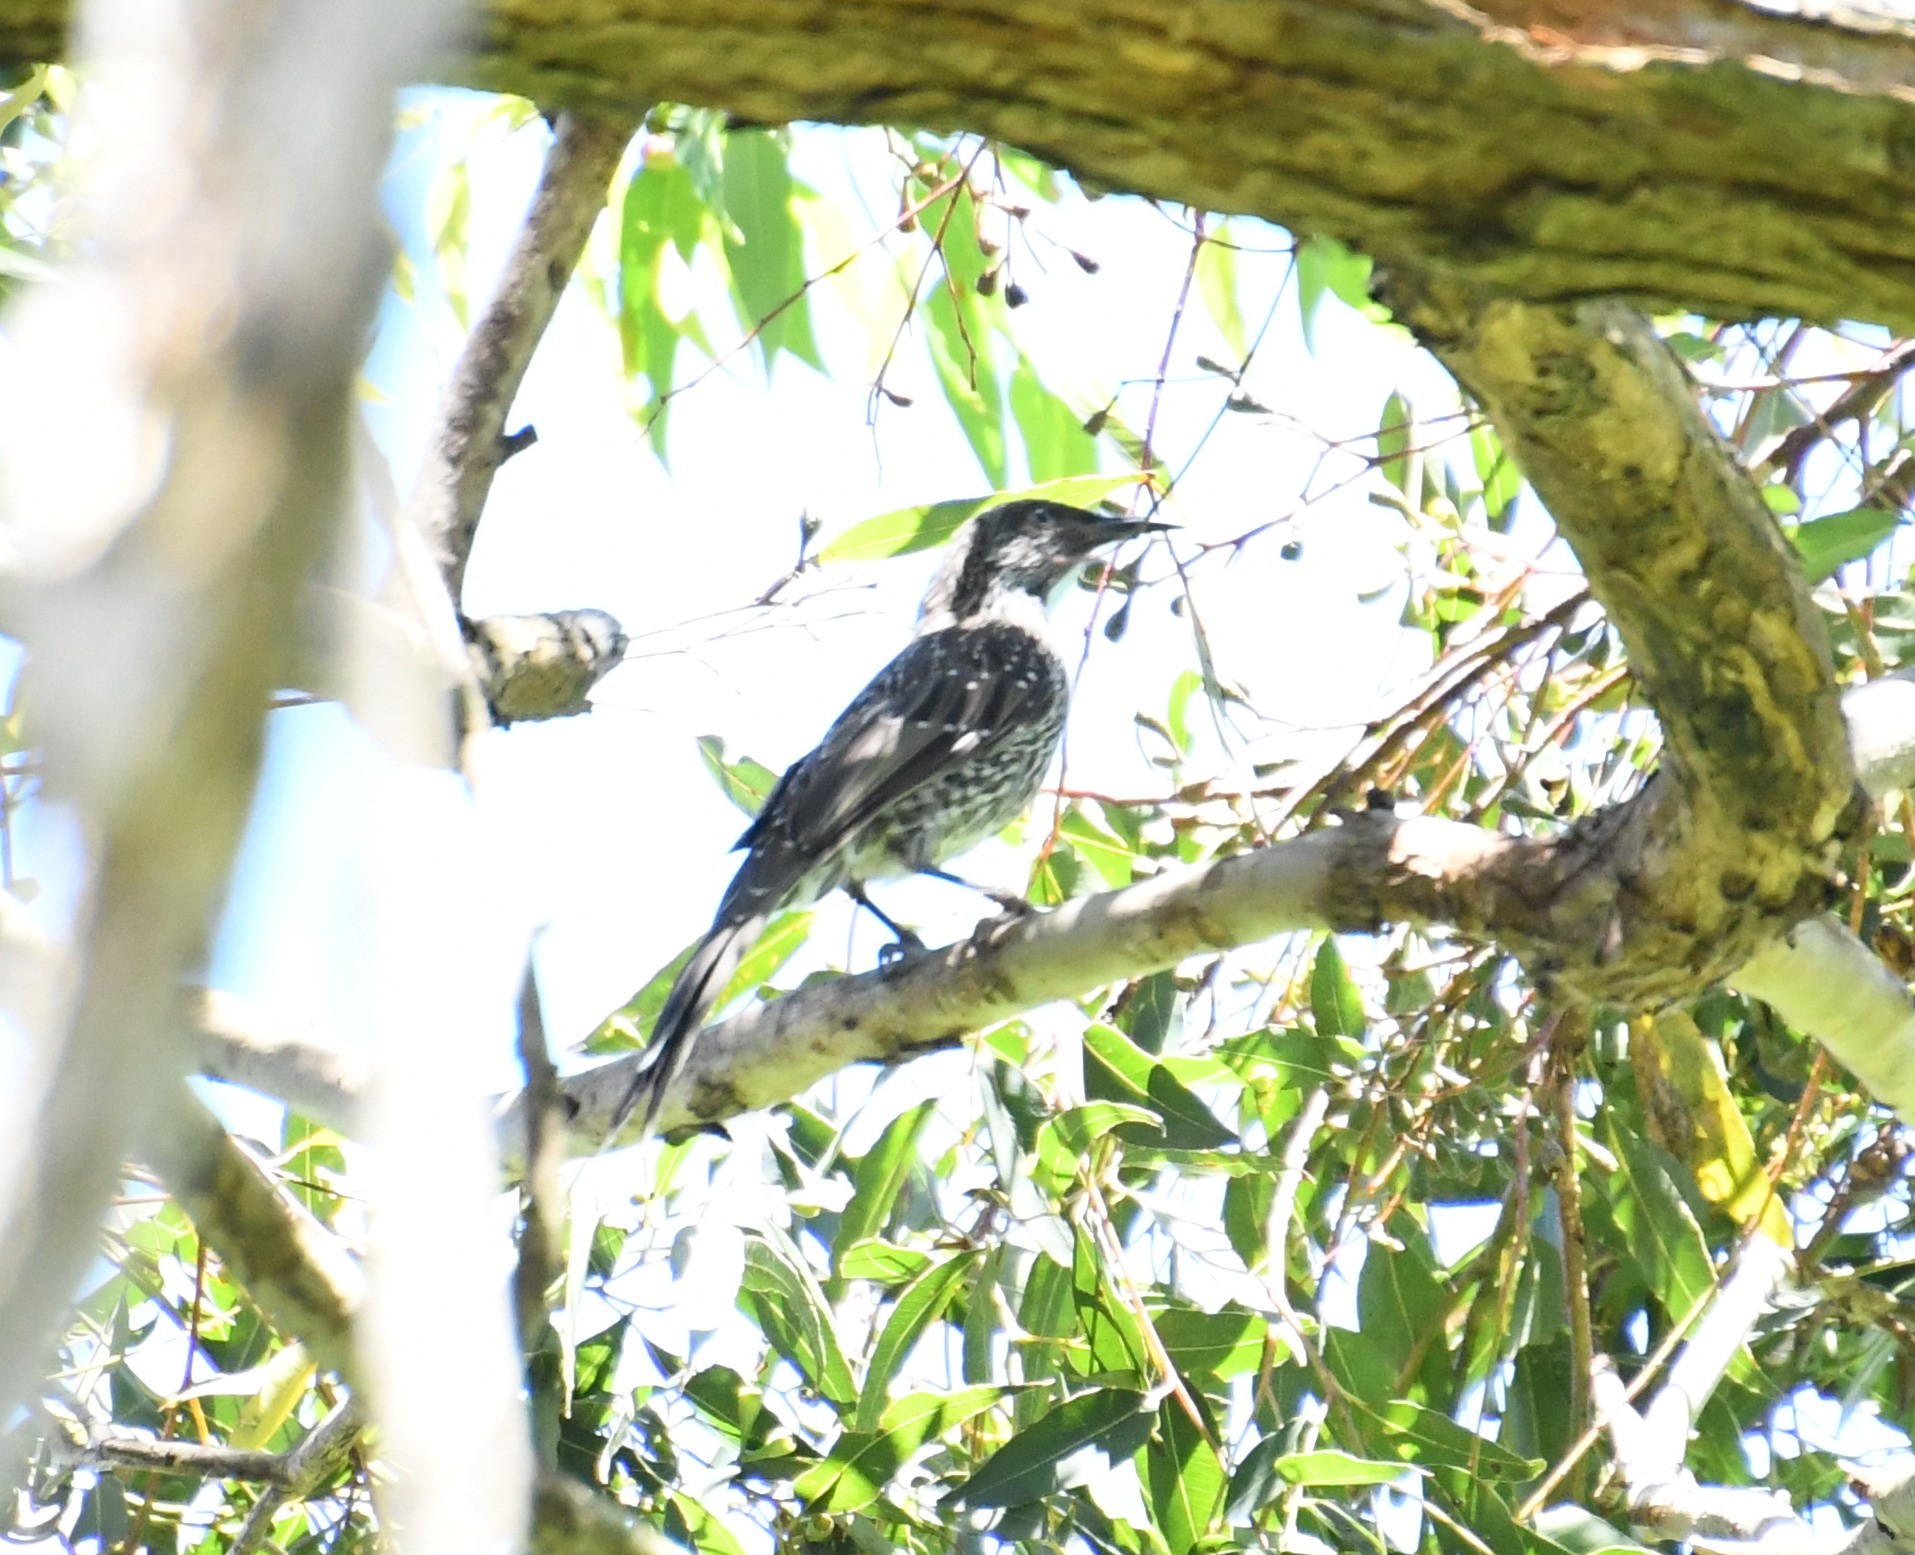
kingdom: Animalia
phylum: Chordata
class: Aves
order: Passeriformes
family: Meliphagidae
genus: Anthochaera
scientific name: Anthochaera chrysoptera
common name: Little wattlebird
